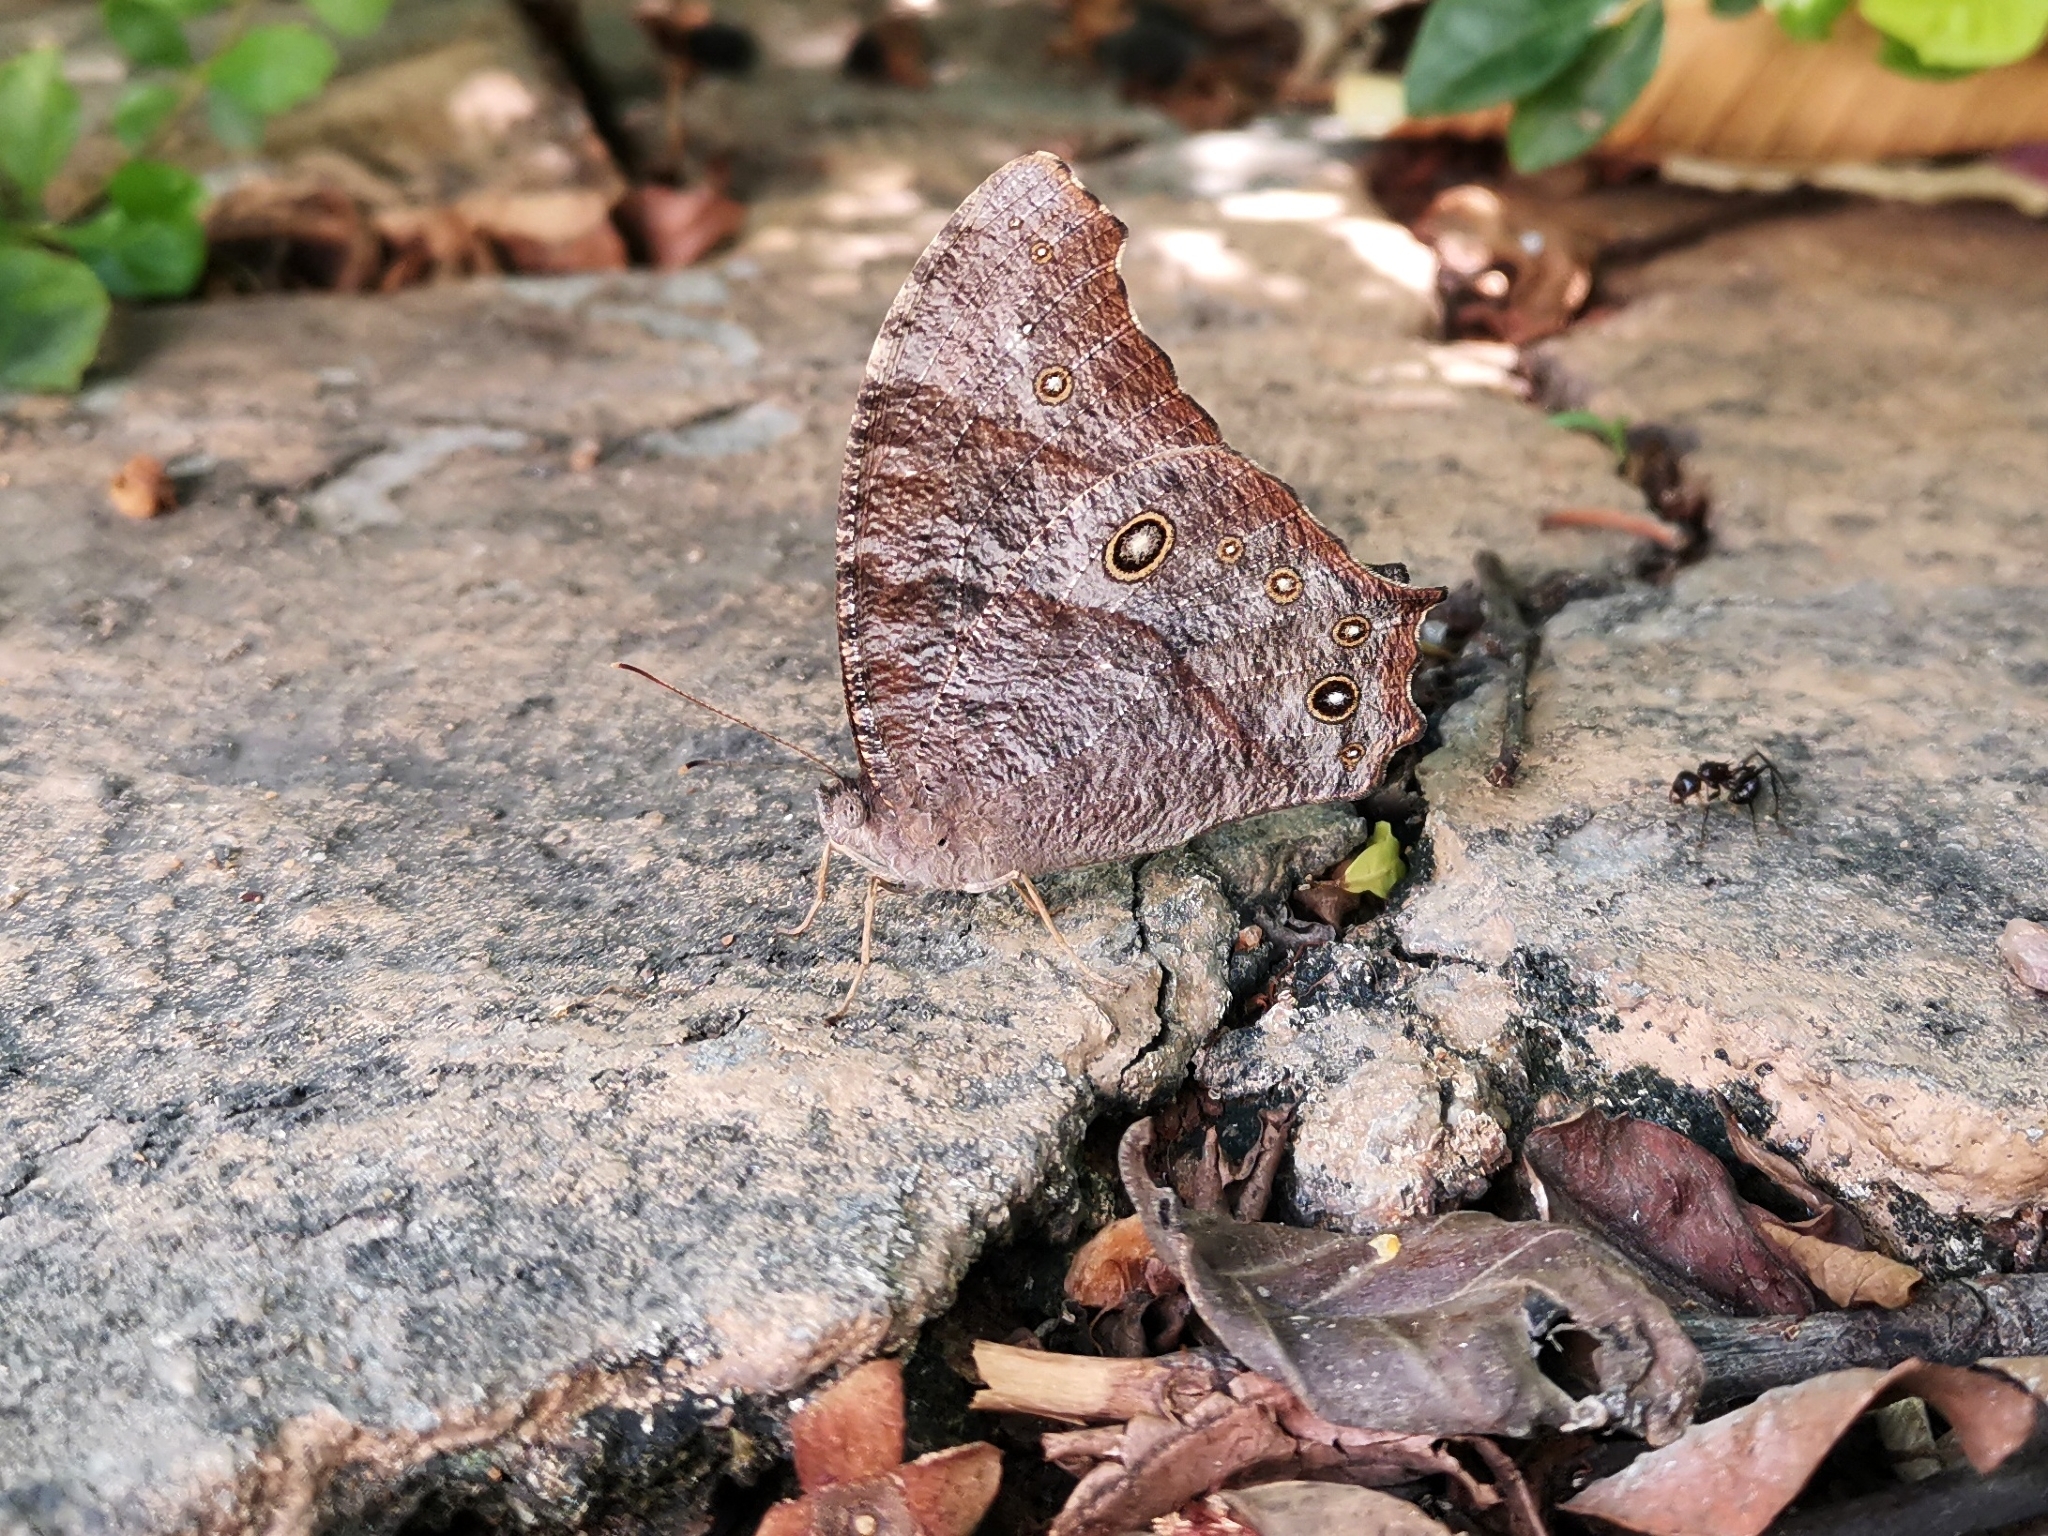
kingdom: Animalia
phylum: Arthropoda
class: Insecta
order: Lepidoptera
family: Nymphalidae
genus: Melanitis
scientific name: Melanitis leda
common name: Twilight brown
